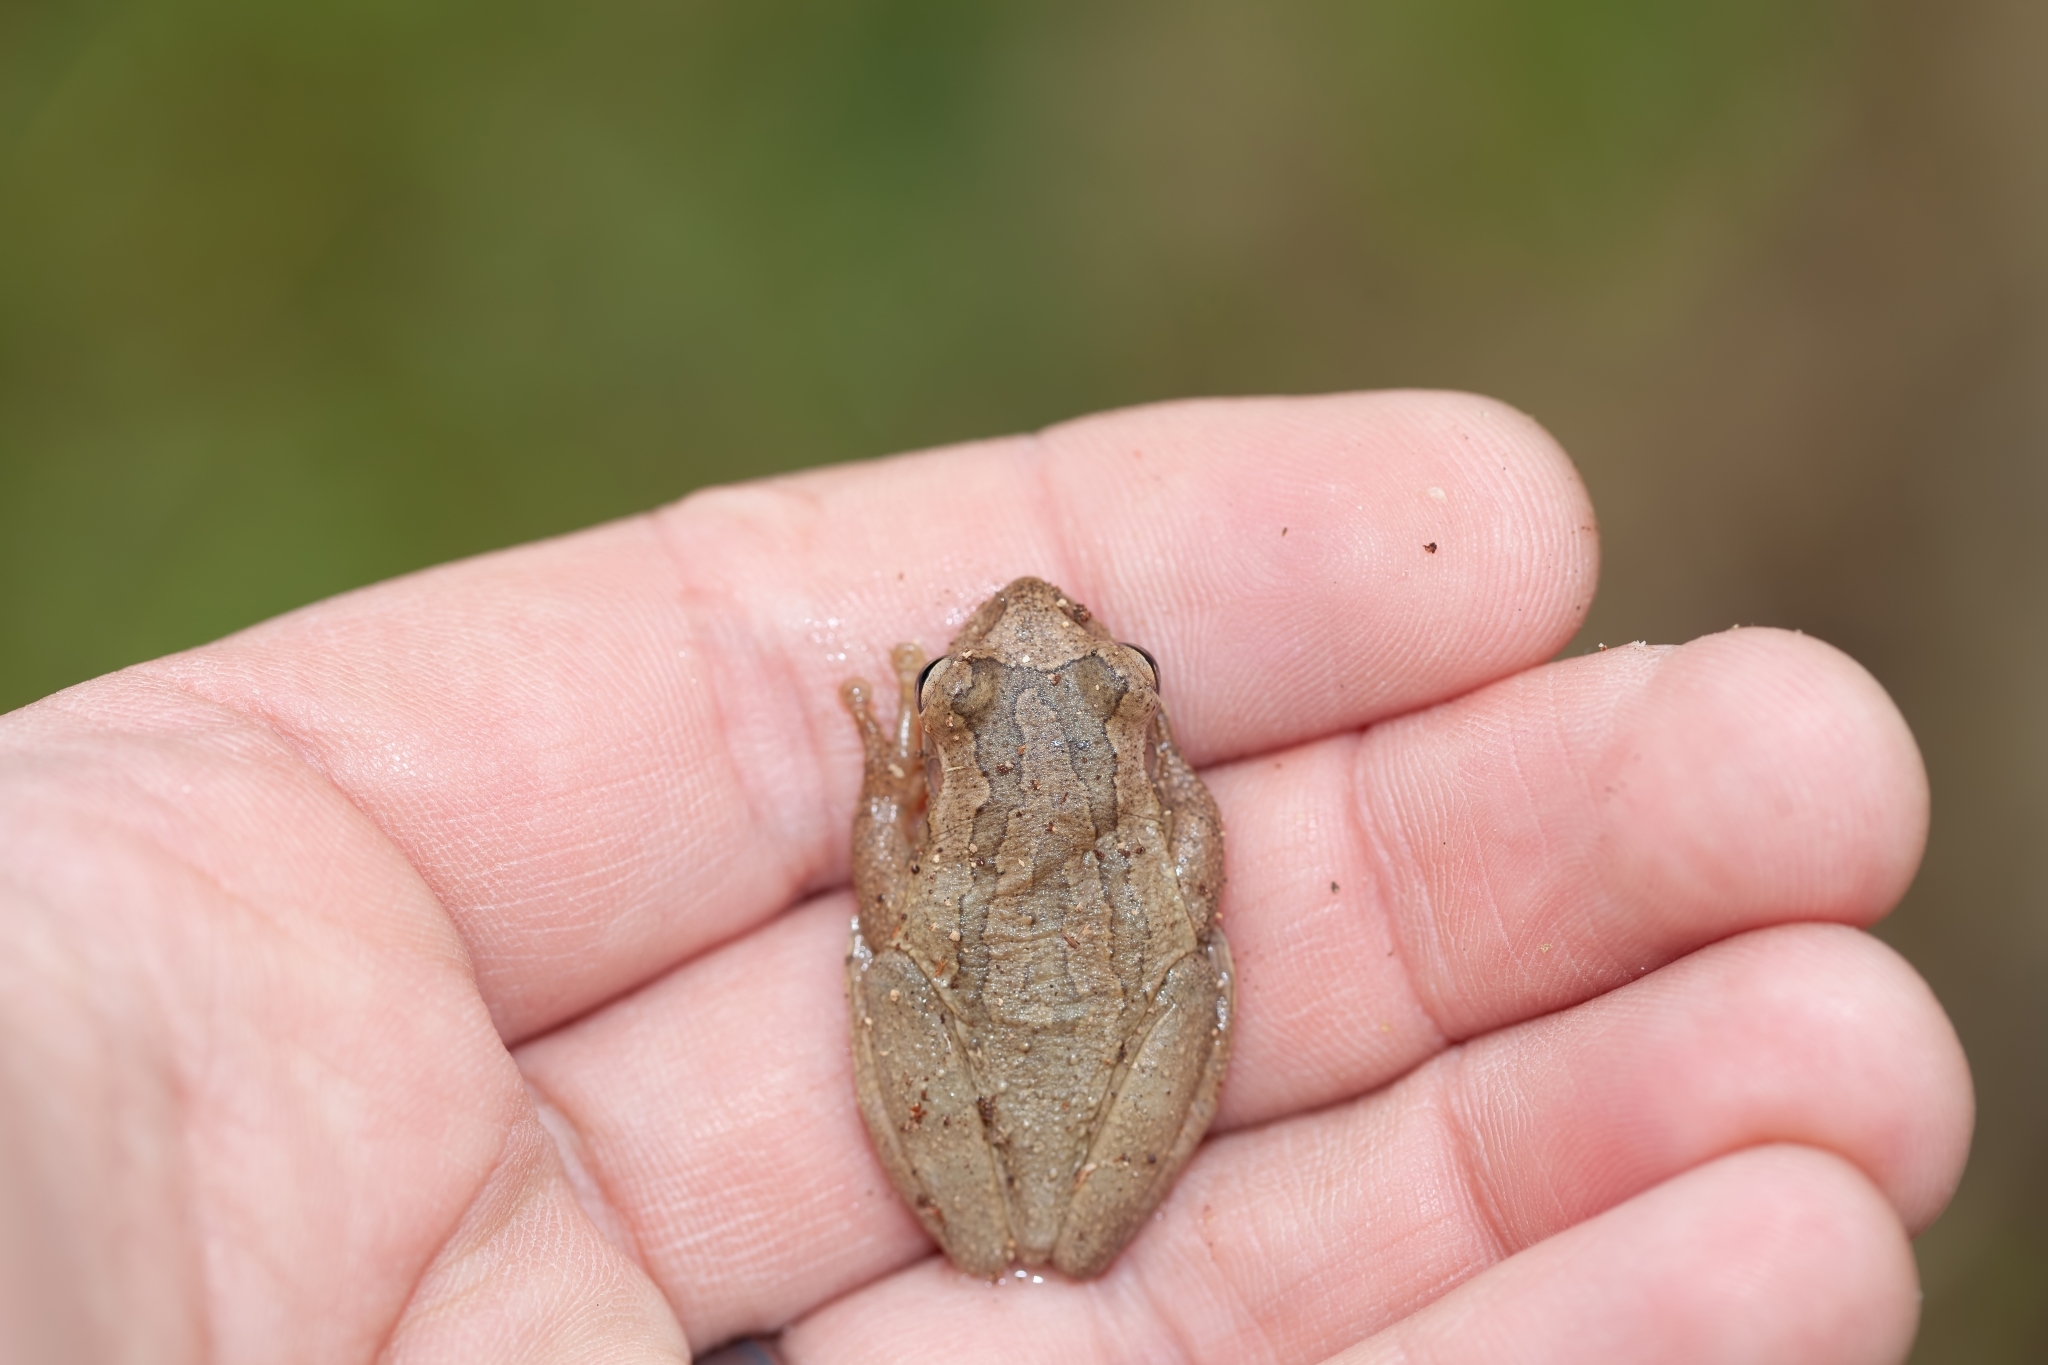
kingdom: Animalia
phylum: Chordata
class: Amphibia
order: Anura
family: Hylidae
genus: Osteopilus
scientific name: Osteopilus septentrionalis
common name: Cuban treefrog
